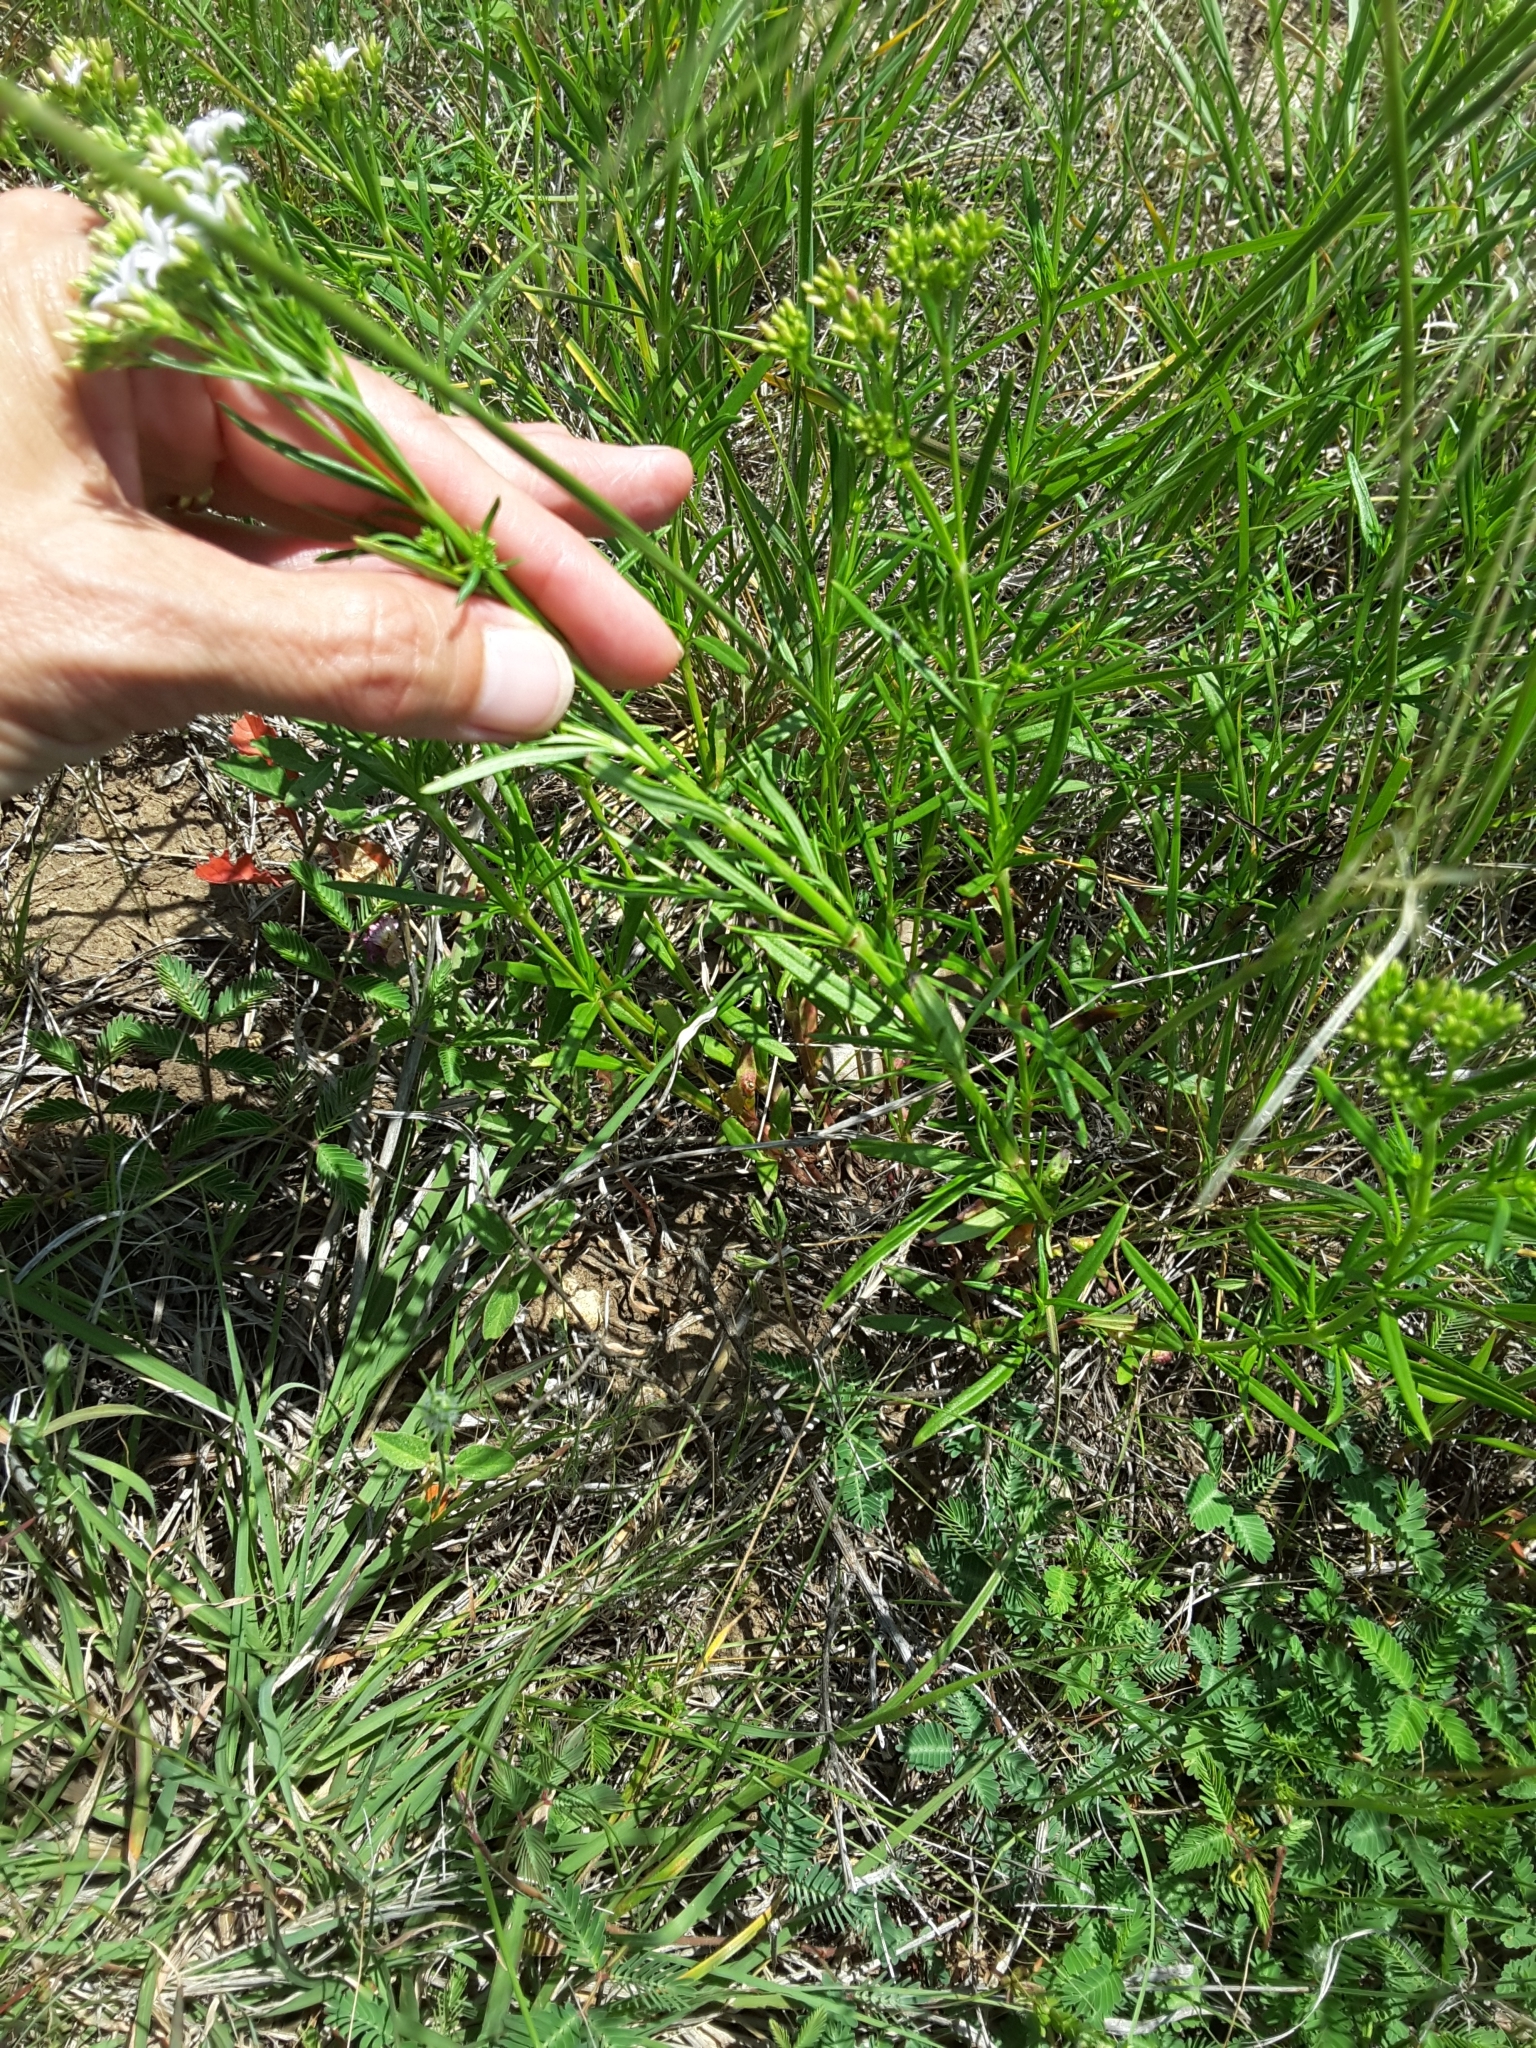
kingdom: Plantae
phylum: Tracheophyta
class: Magnoliopsida
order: Gentianales
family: Rubiaceae
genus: Stenaria
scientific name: Stenaria nigricans
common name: Diamondflowers
